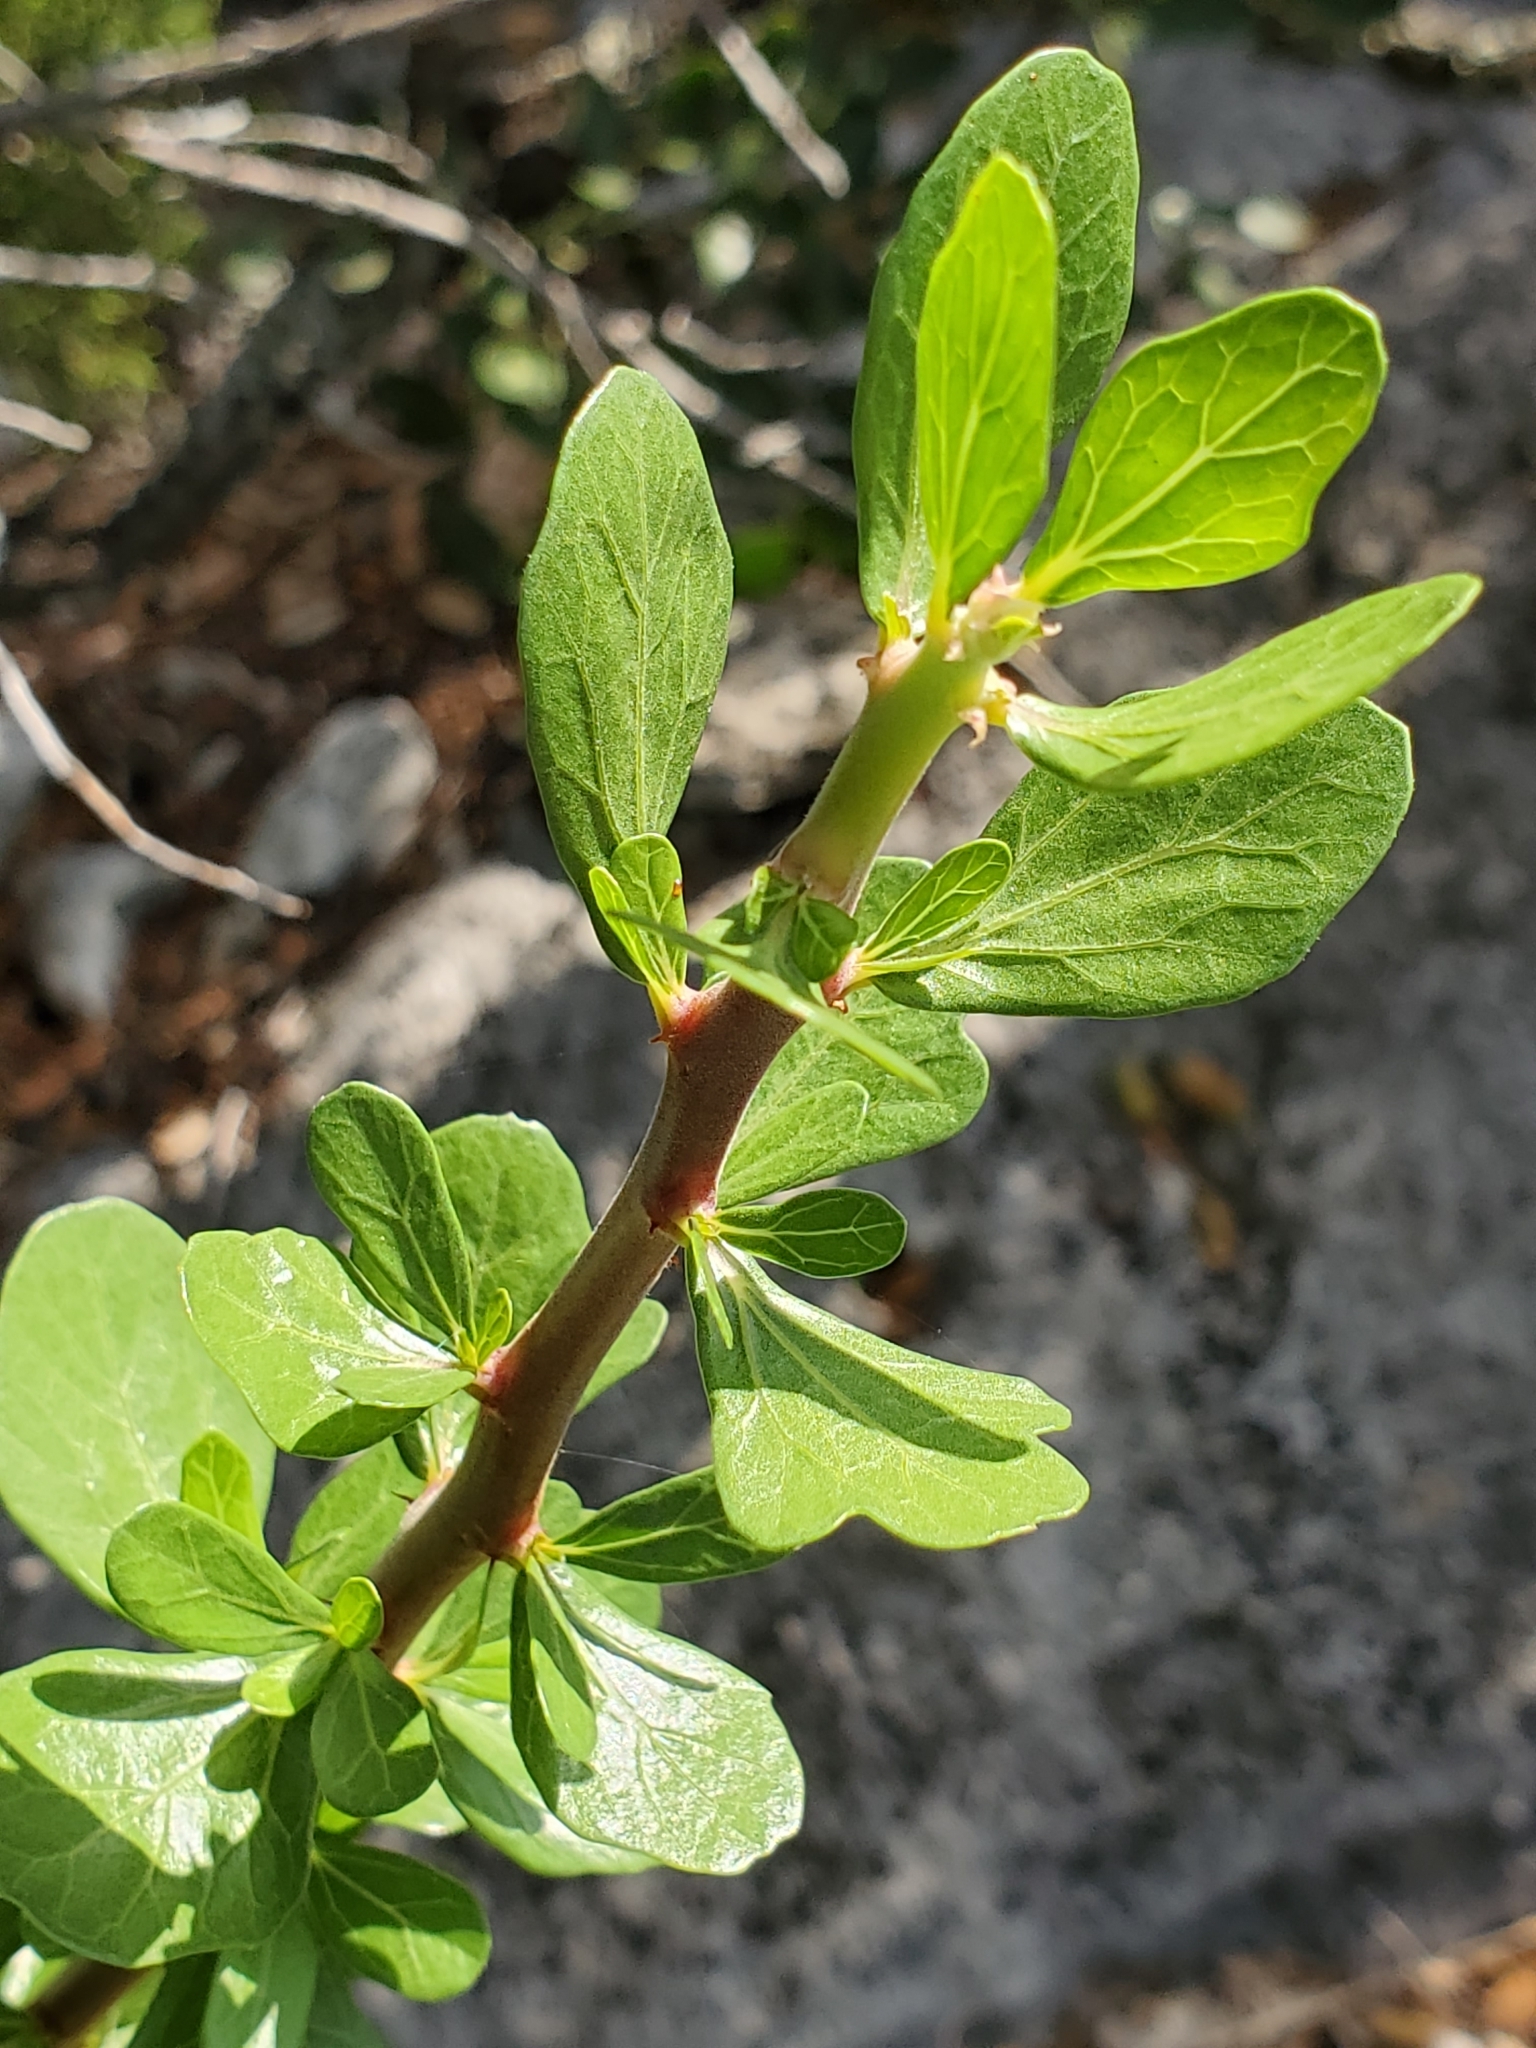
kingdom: Plantae
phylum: Tracheophyta
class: Magnoliopsida
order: Malpighiales
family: Euphorbiaceae
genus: Jatropha
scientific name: Jatropha dioica
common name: Leatherstem
